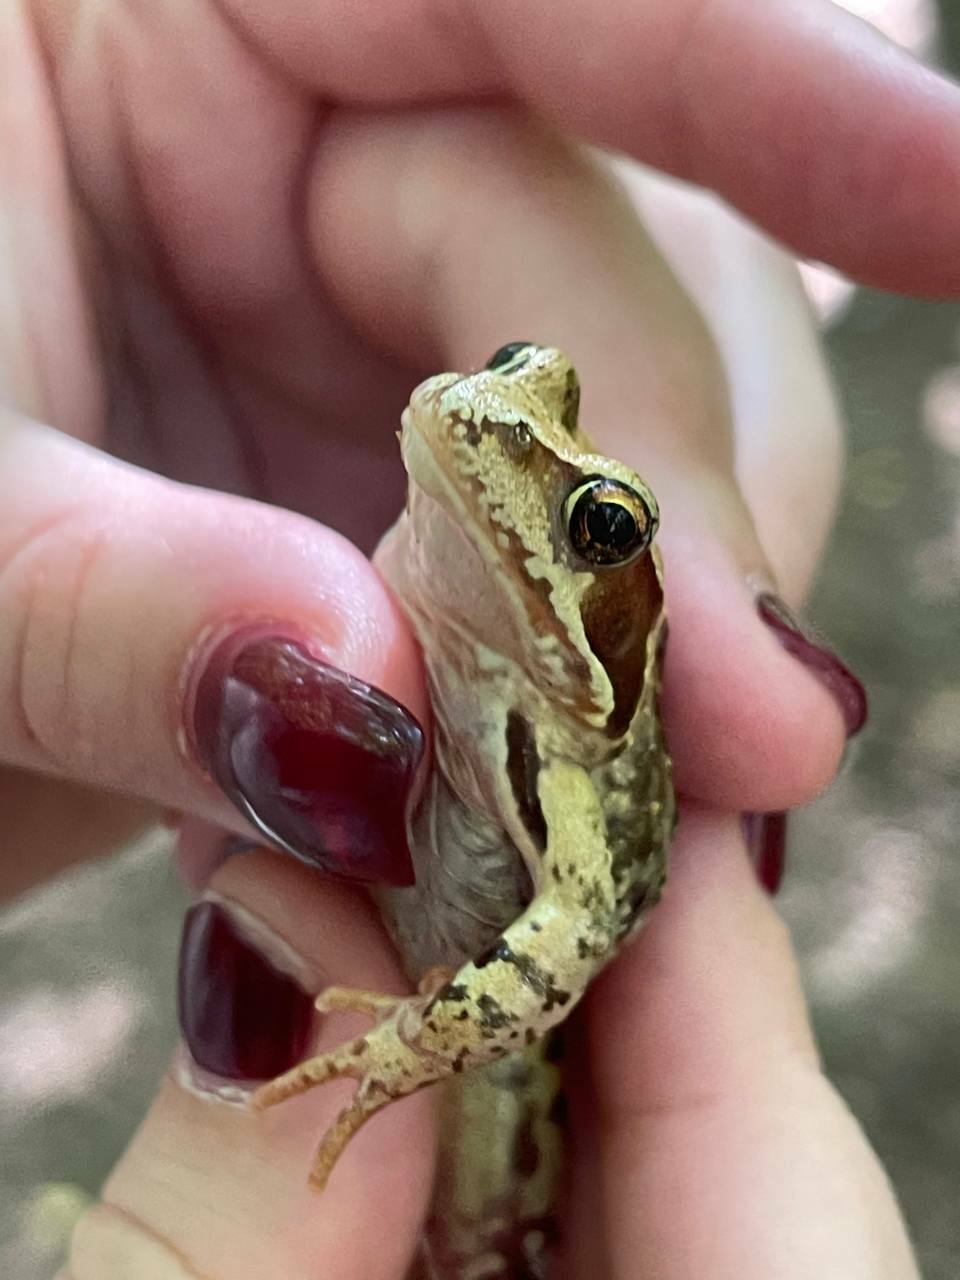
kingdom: Animalia
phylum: Chordata
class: Amphibia
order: Anura
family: Ranidae
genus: Rana
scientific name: Rana temporaria
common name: Common frog
